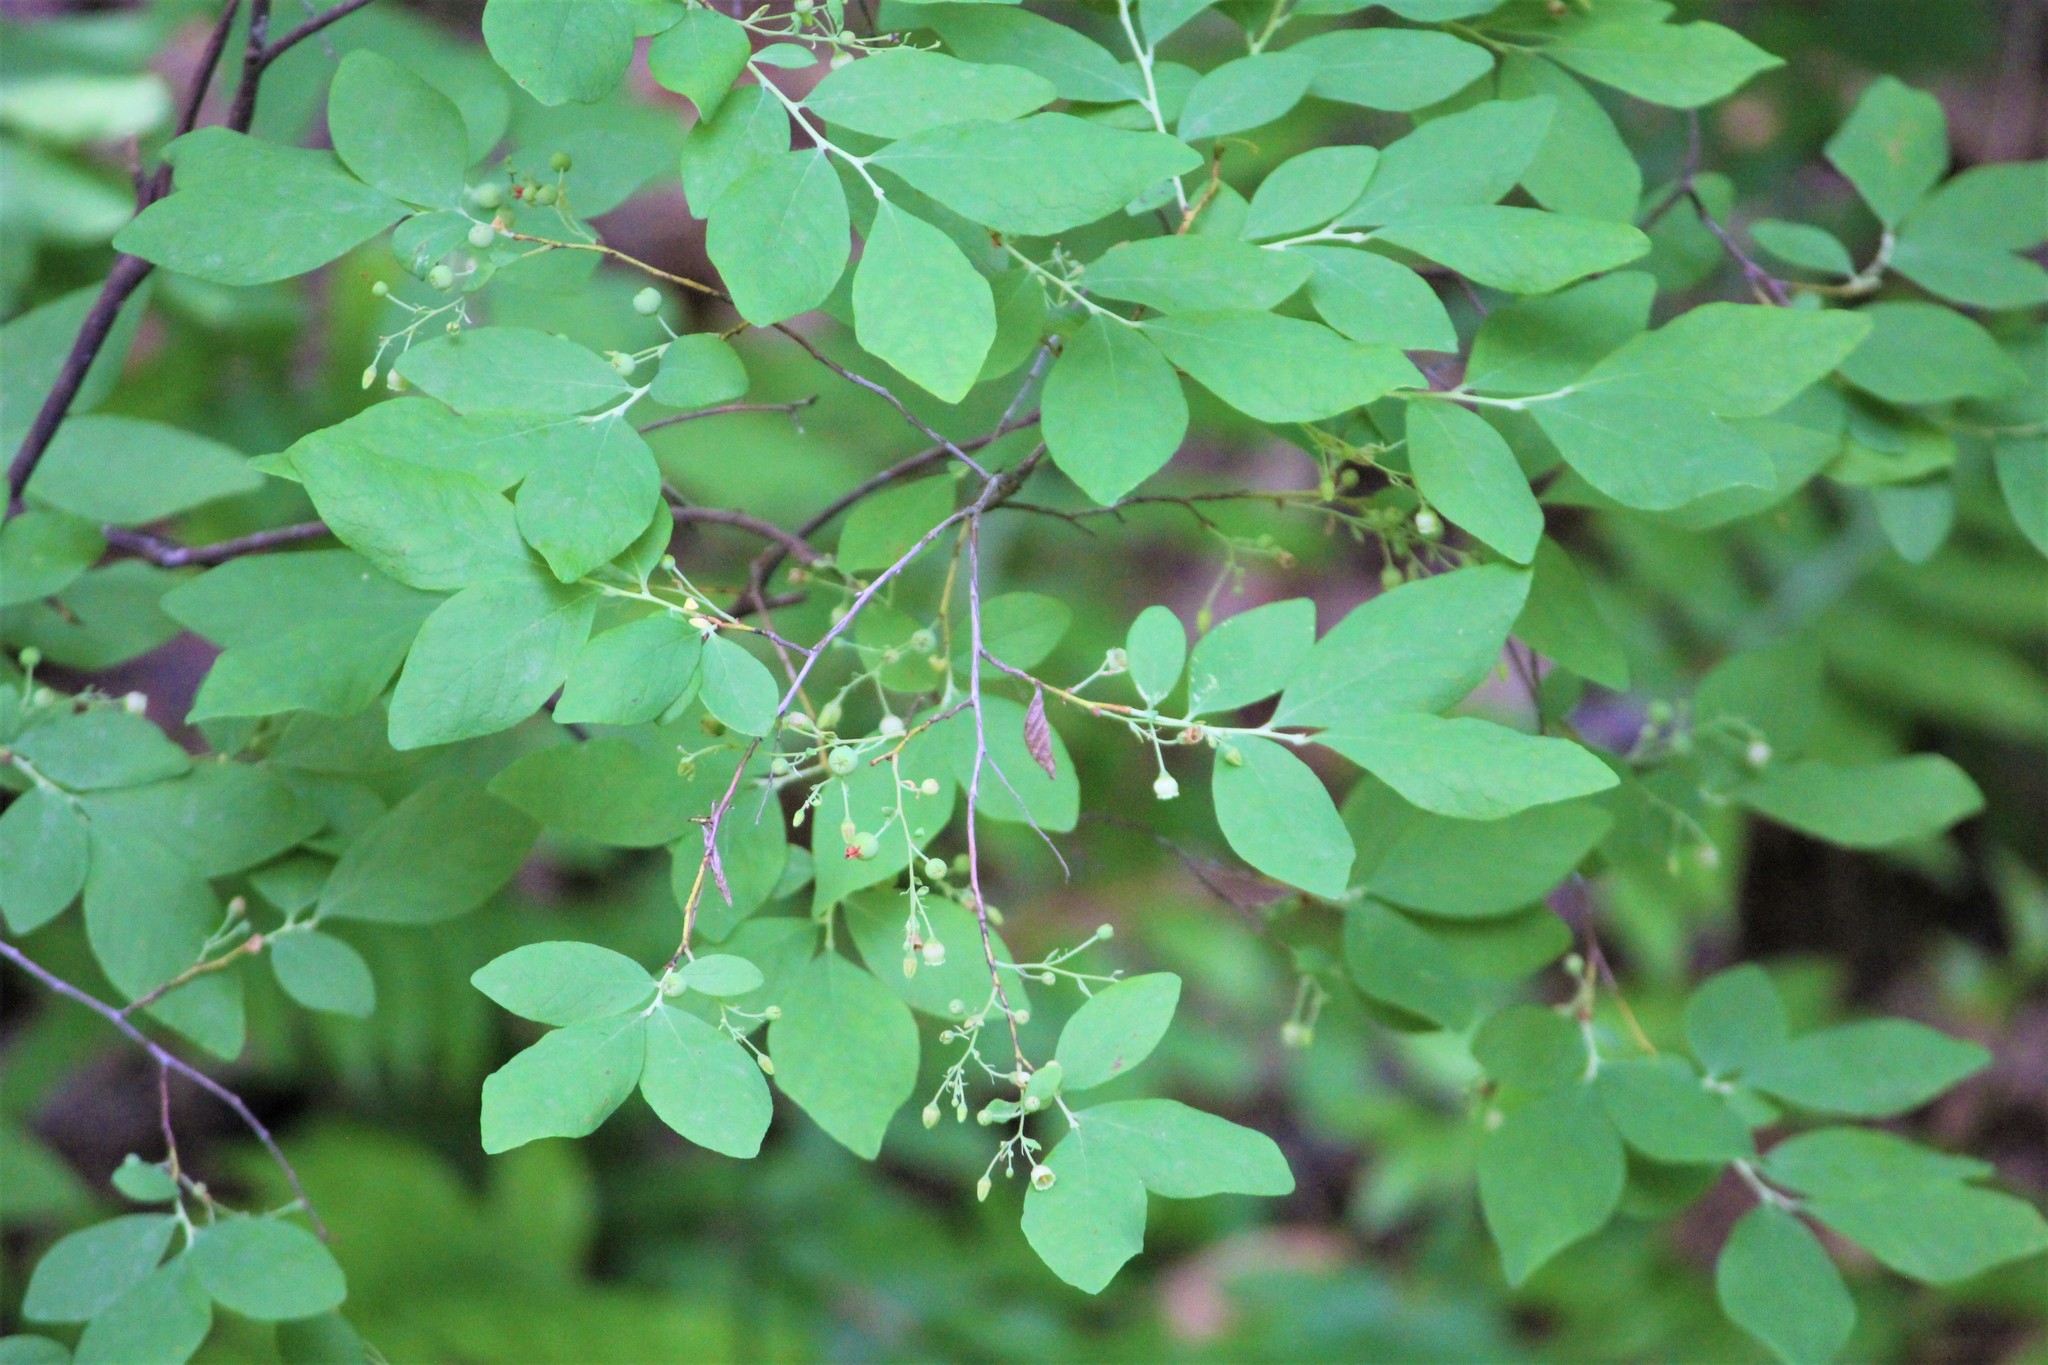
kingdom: Plantae
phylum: Tracheophyta
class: Magnoliopsida
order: Ericales
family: Ericaceae
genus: Gaylussacia
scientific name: Gaylussacia frondosa
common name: Dangleberry
